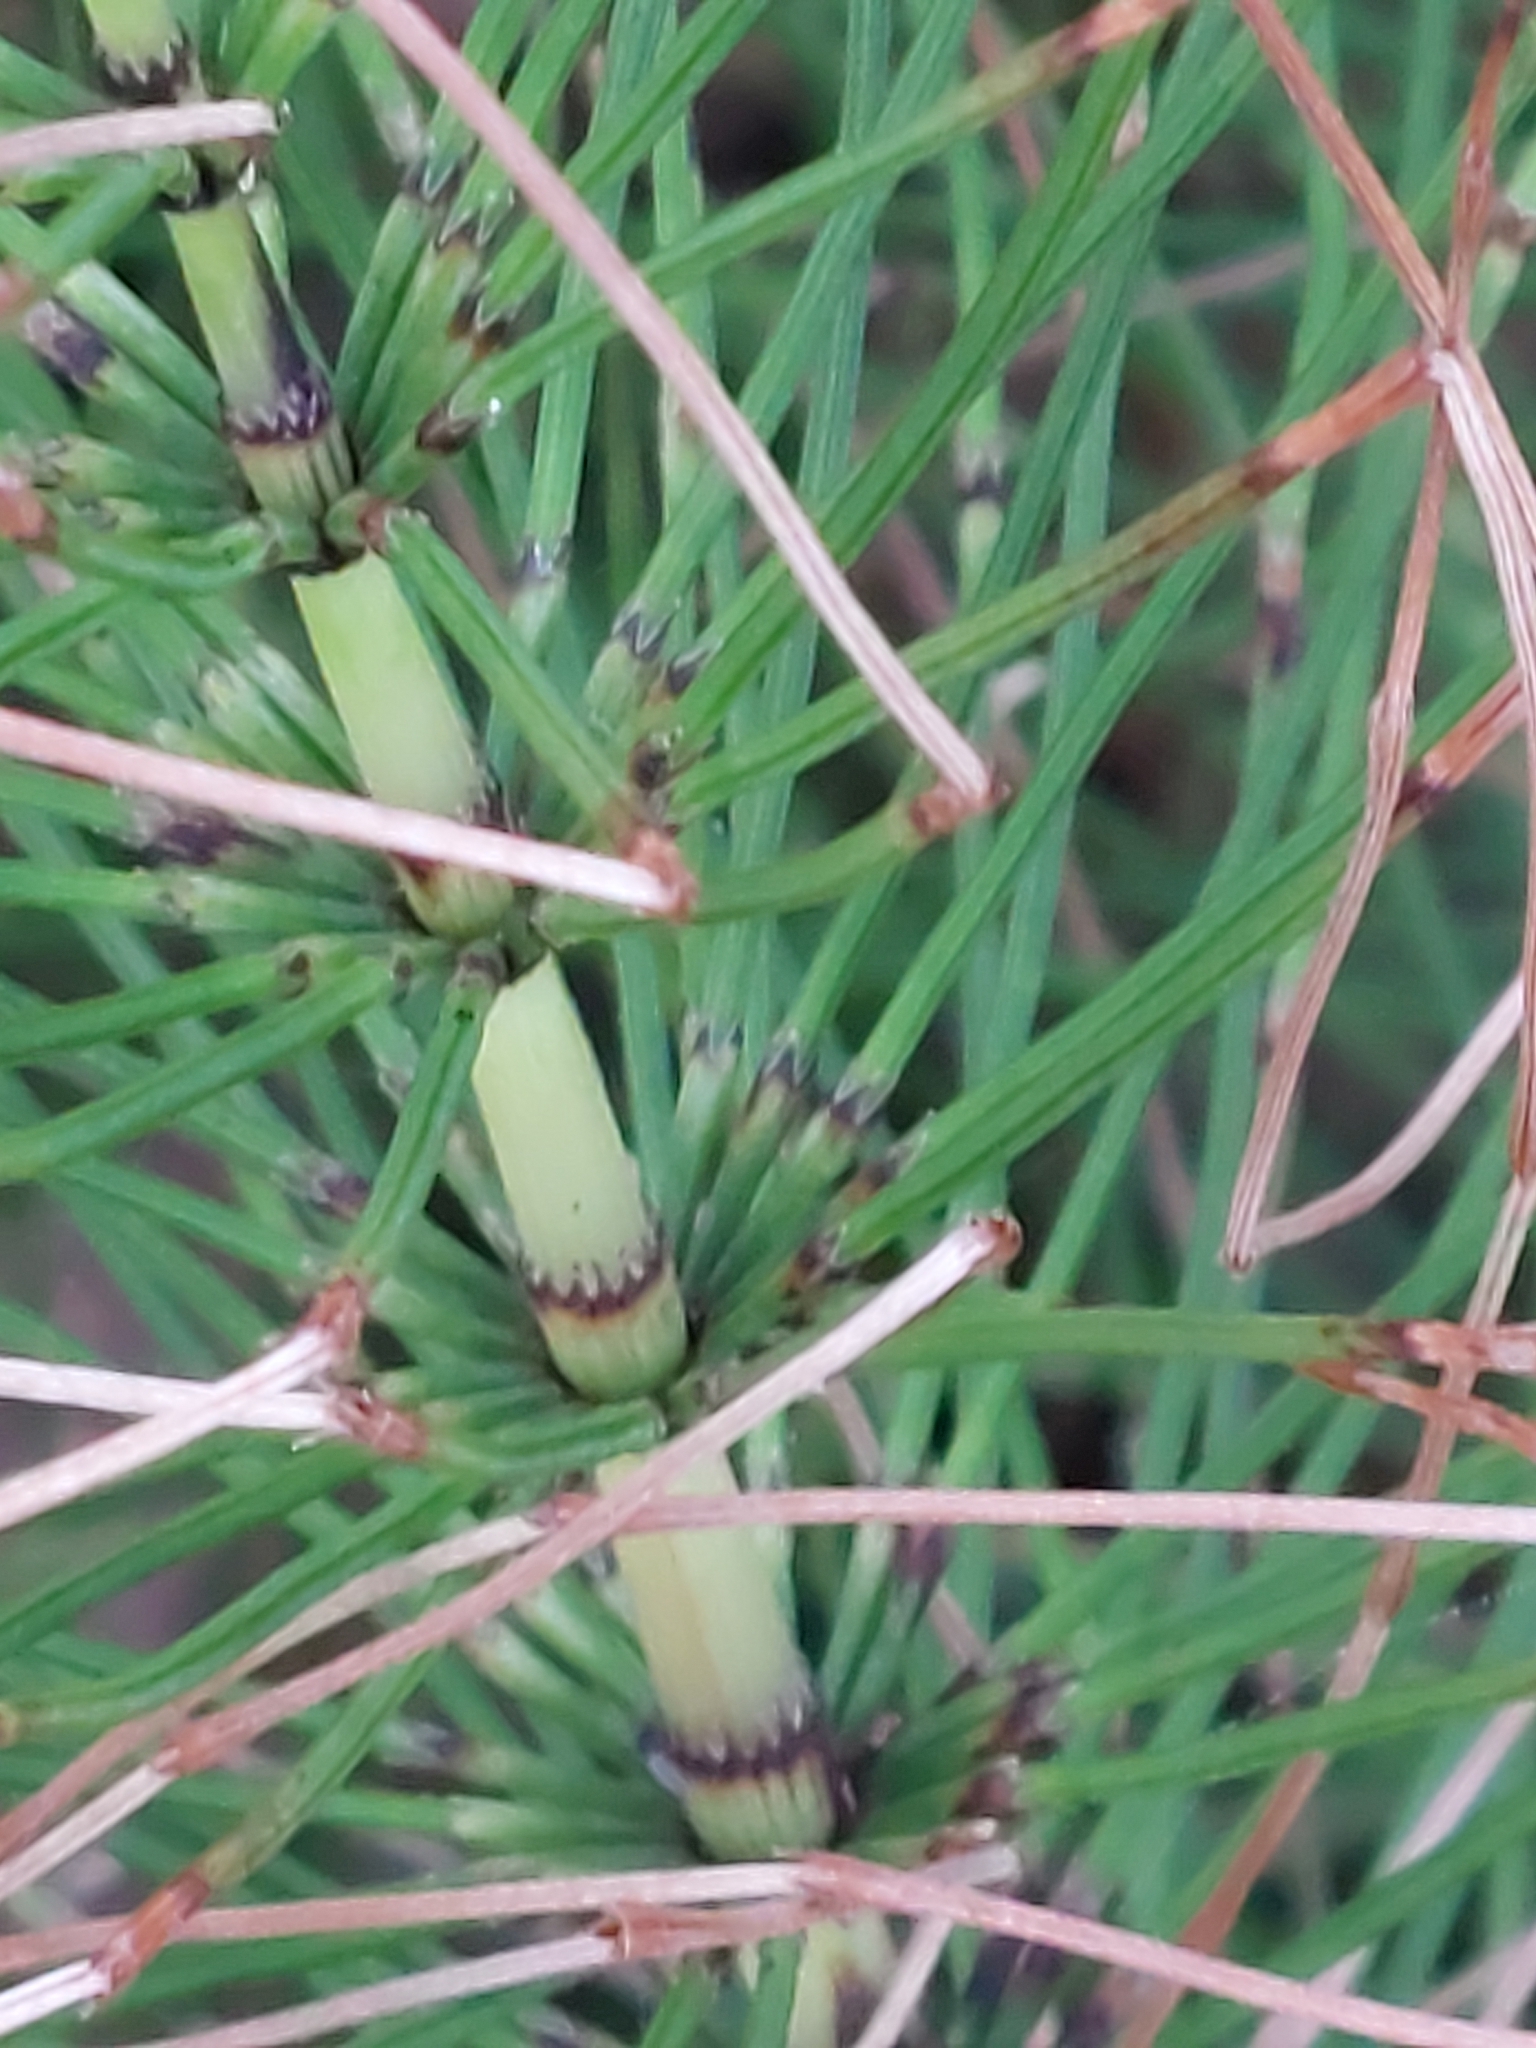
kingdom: Plantae
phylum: Tracheophyta
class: Polypodiopsida
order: Equisetales
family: Equisetaceae
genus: Equisetum
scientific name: Equisetum telmateia
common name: Great horsetail
